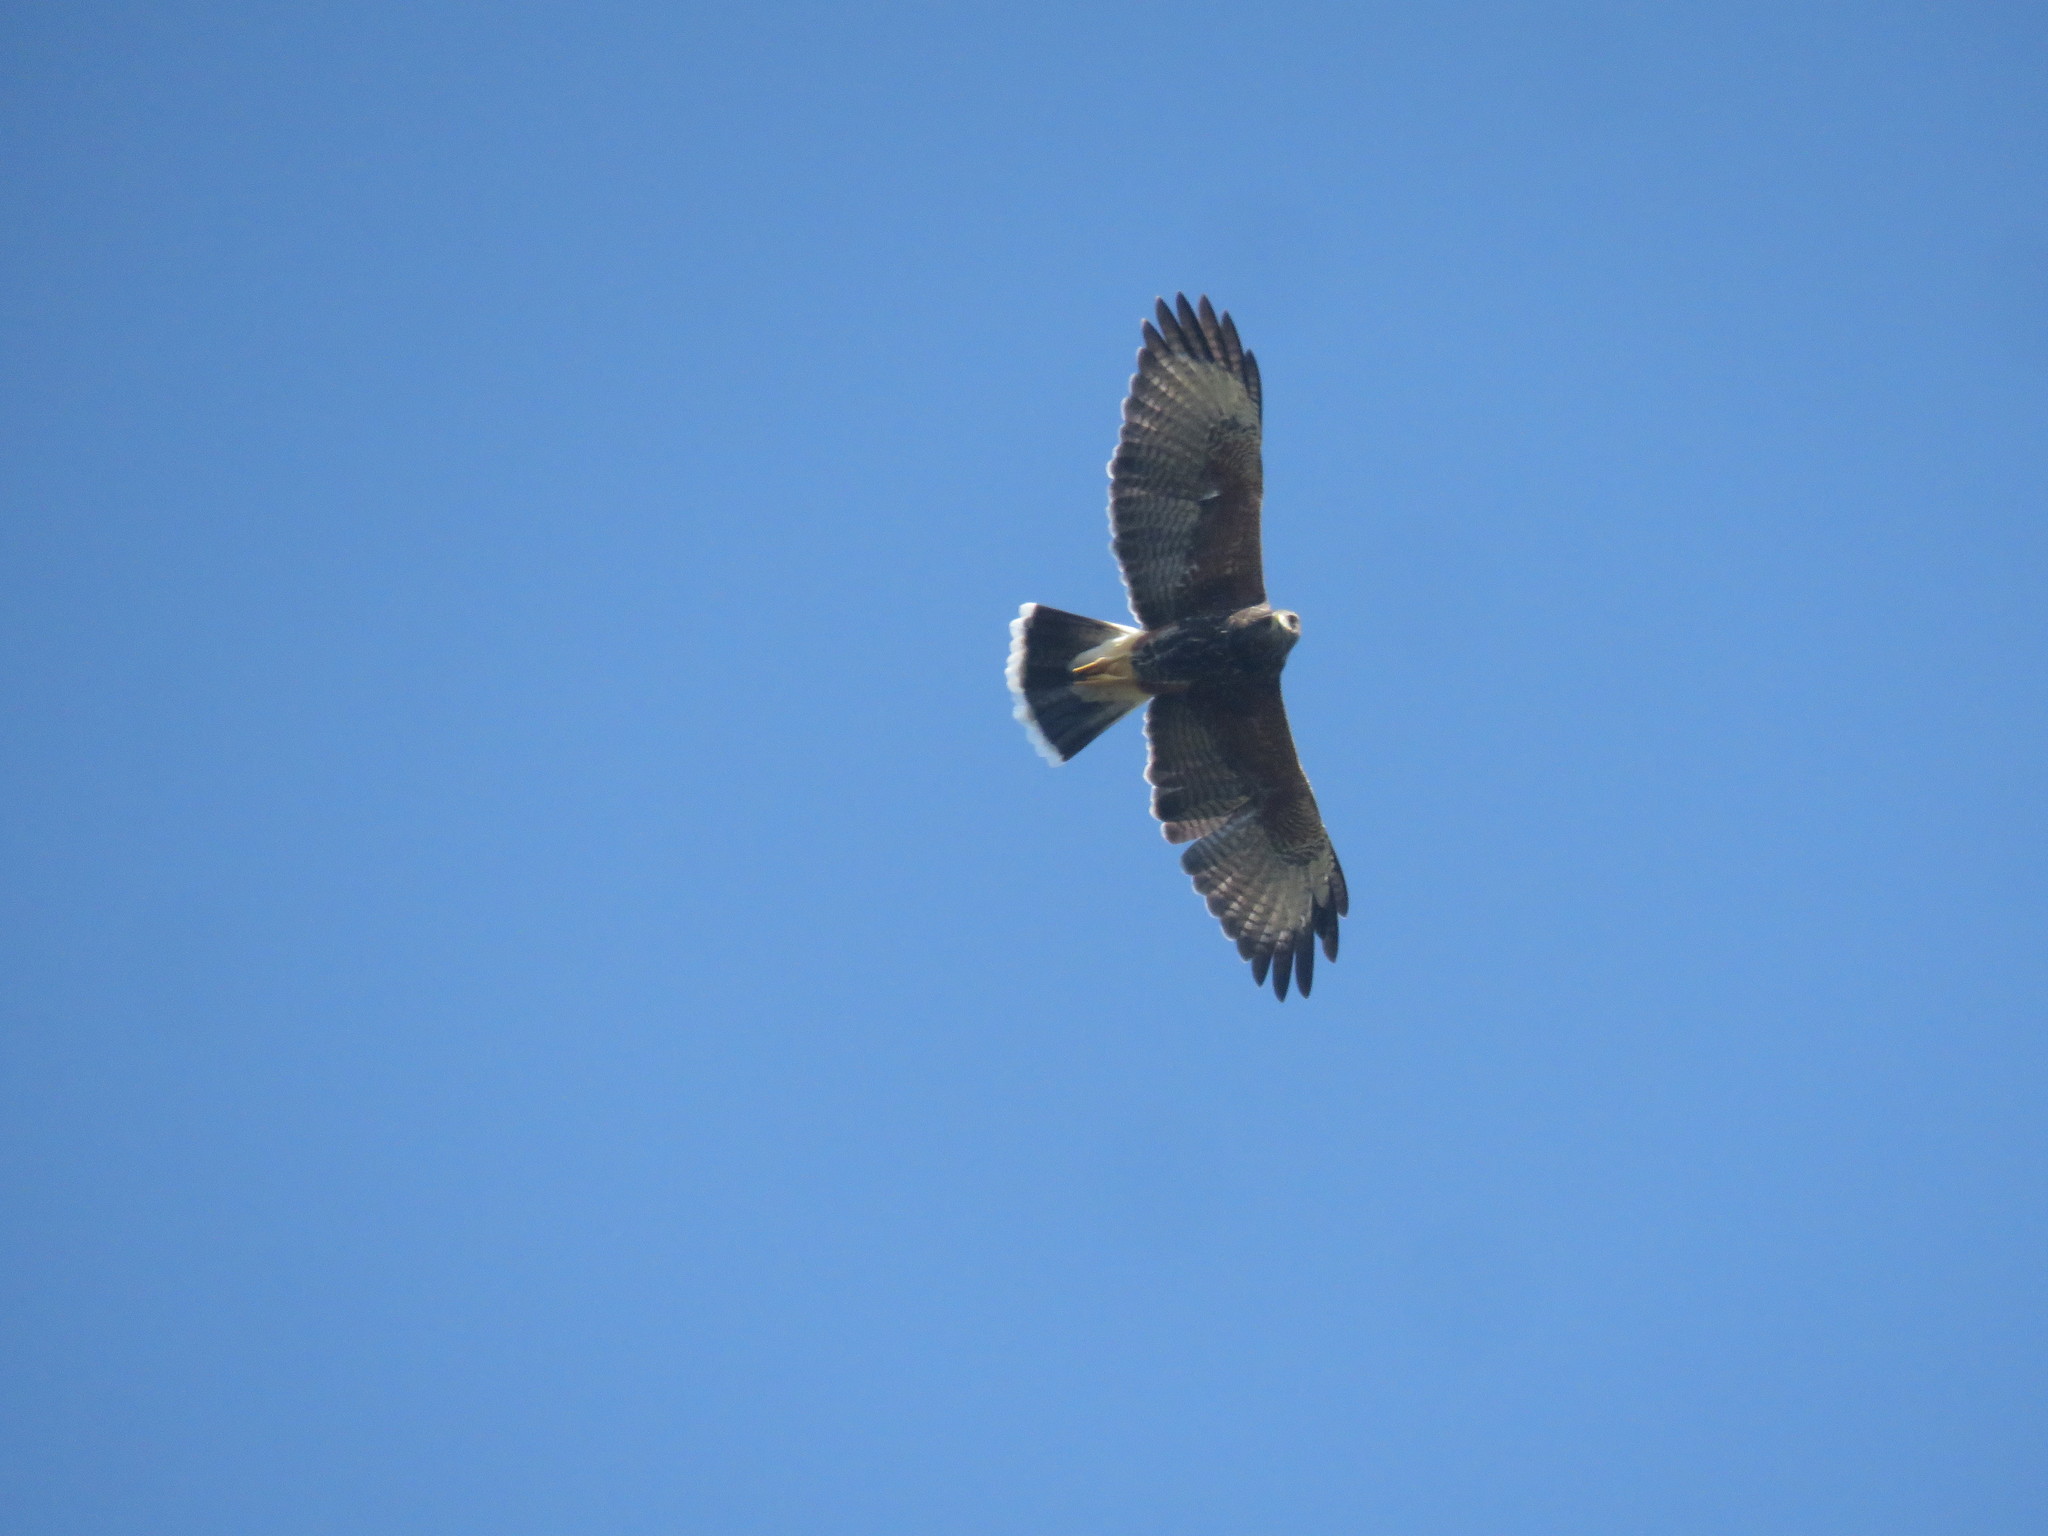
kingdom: Animalia
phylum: Chordata
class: Aves
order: Accipitriformes
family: Accipitridae
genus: Parabuteo
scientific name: Parabuteo unicinctus
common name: Harris's hawk
